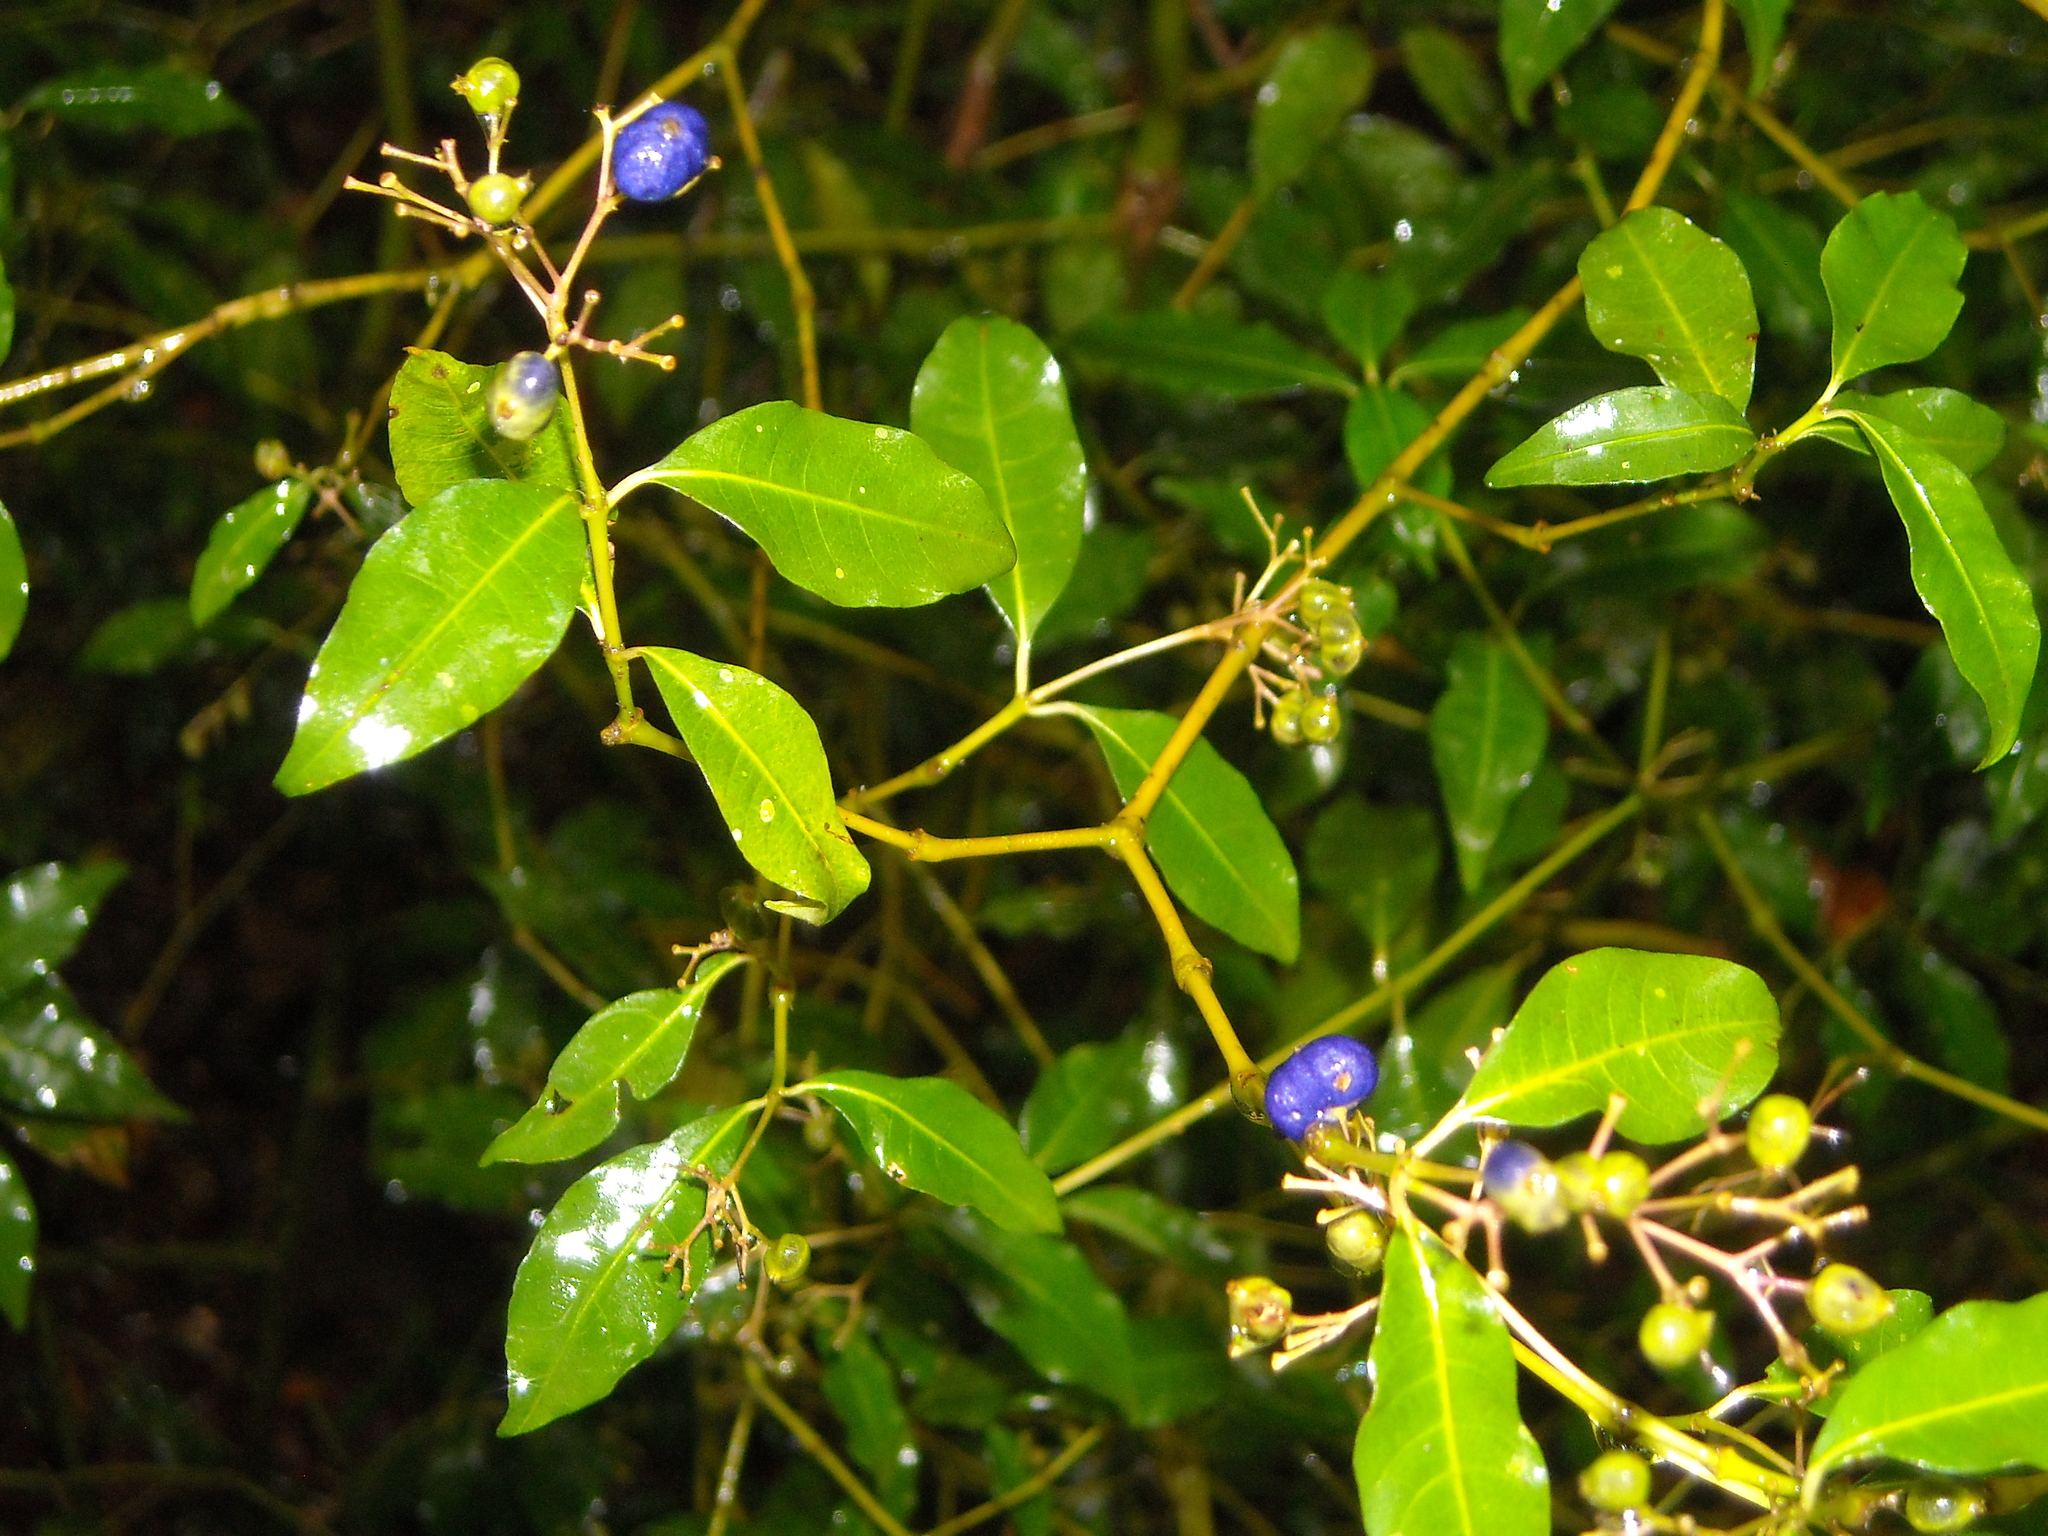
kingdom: Plantae
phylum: Tracheophyta
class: Magnoliopsida
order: Gentianales
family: Rubiaceae
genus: Psychotria
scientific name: Psychotria leiocarpa
